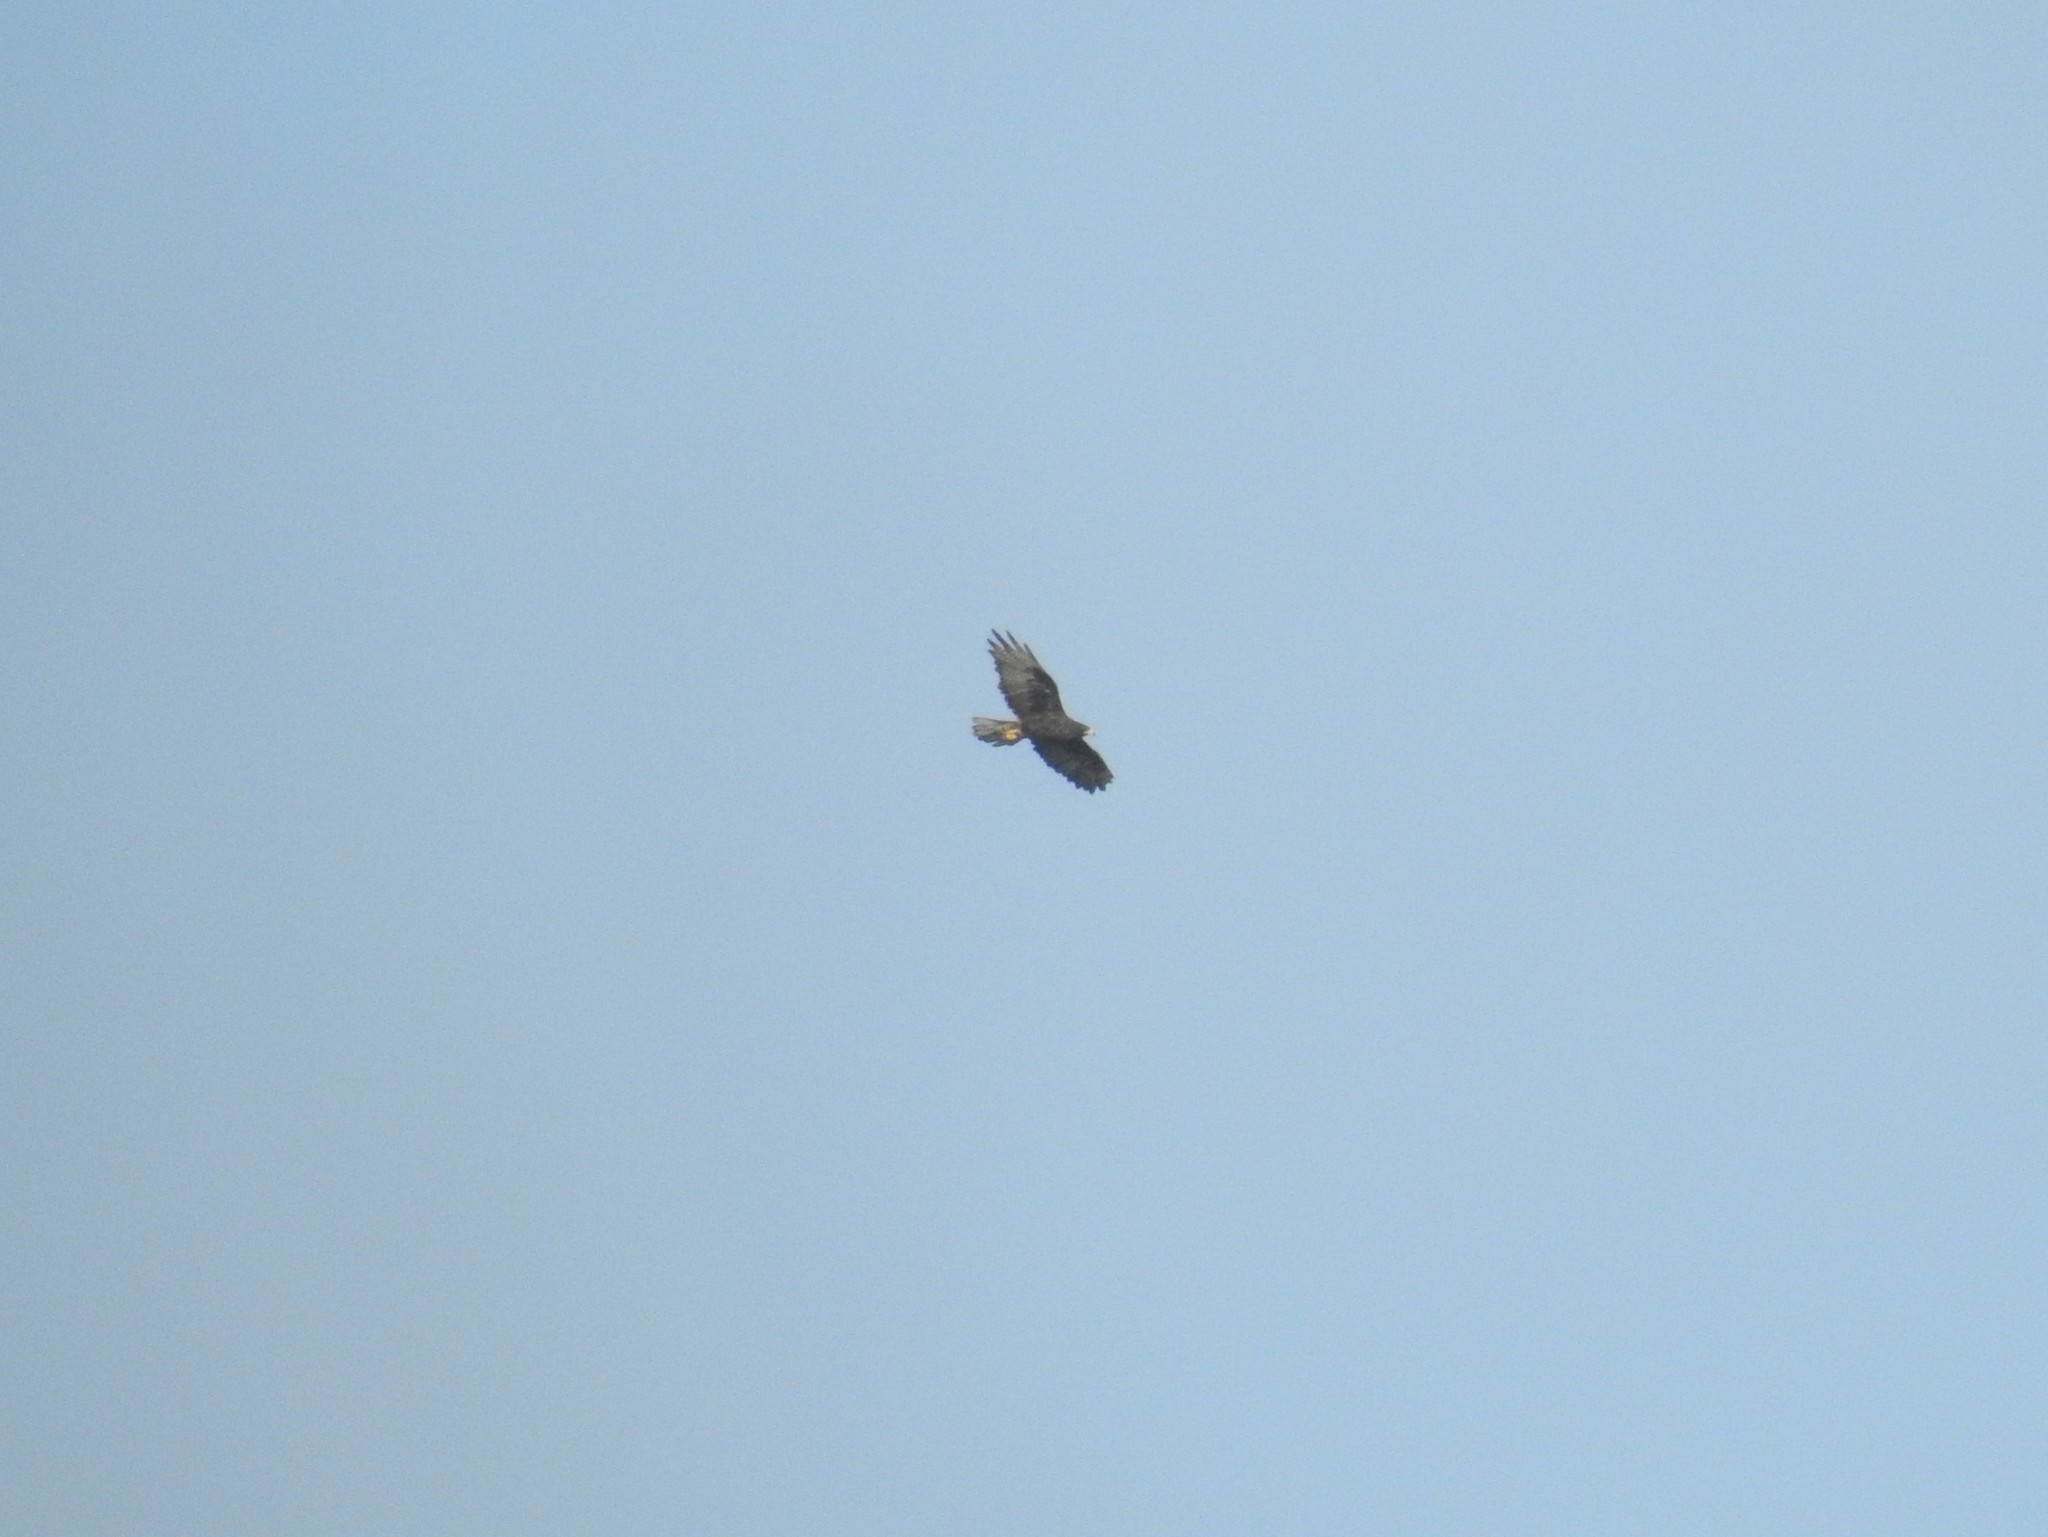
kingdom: Animalia
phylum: Chordata
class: Aves
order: Accipitriformes
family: Accipitridae
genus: Buteo
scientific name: Buteo galapagoensis
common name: Galapagos hawk
